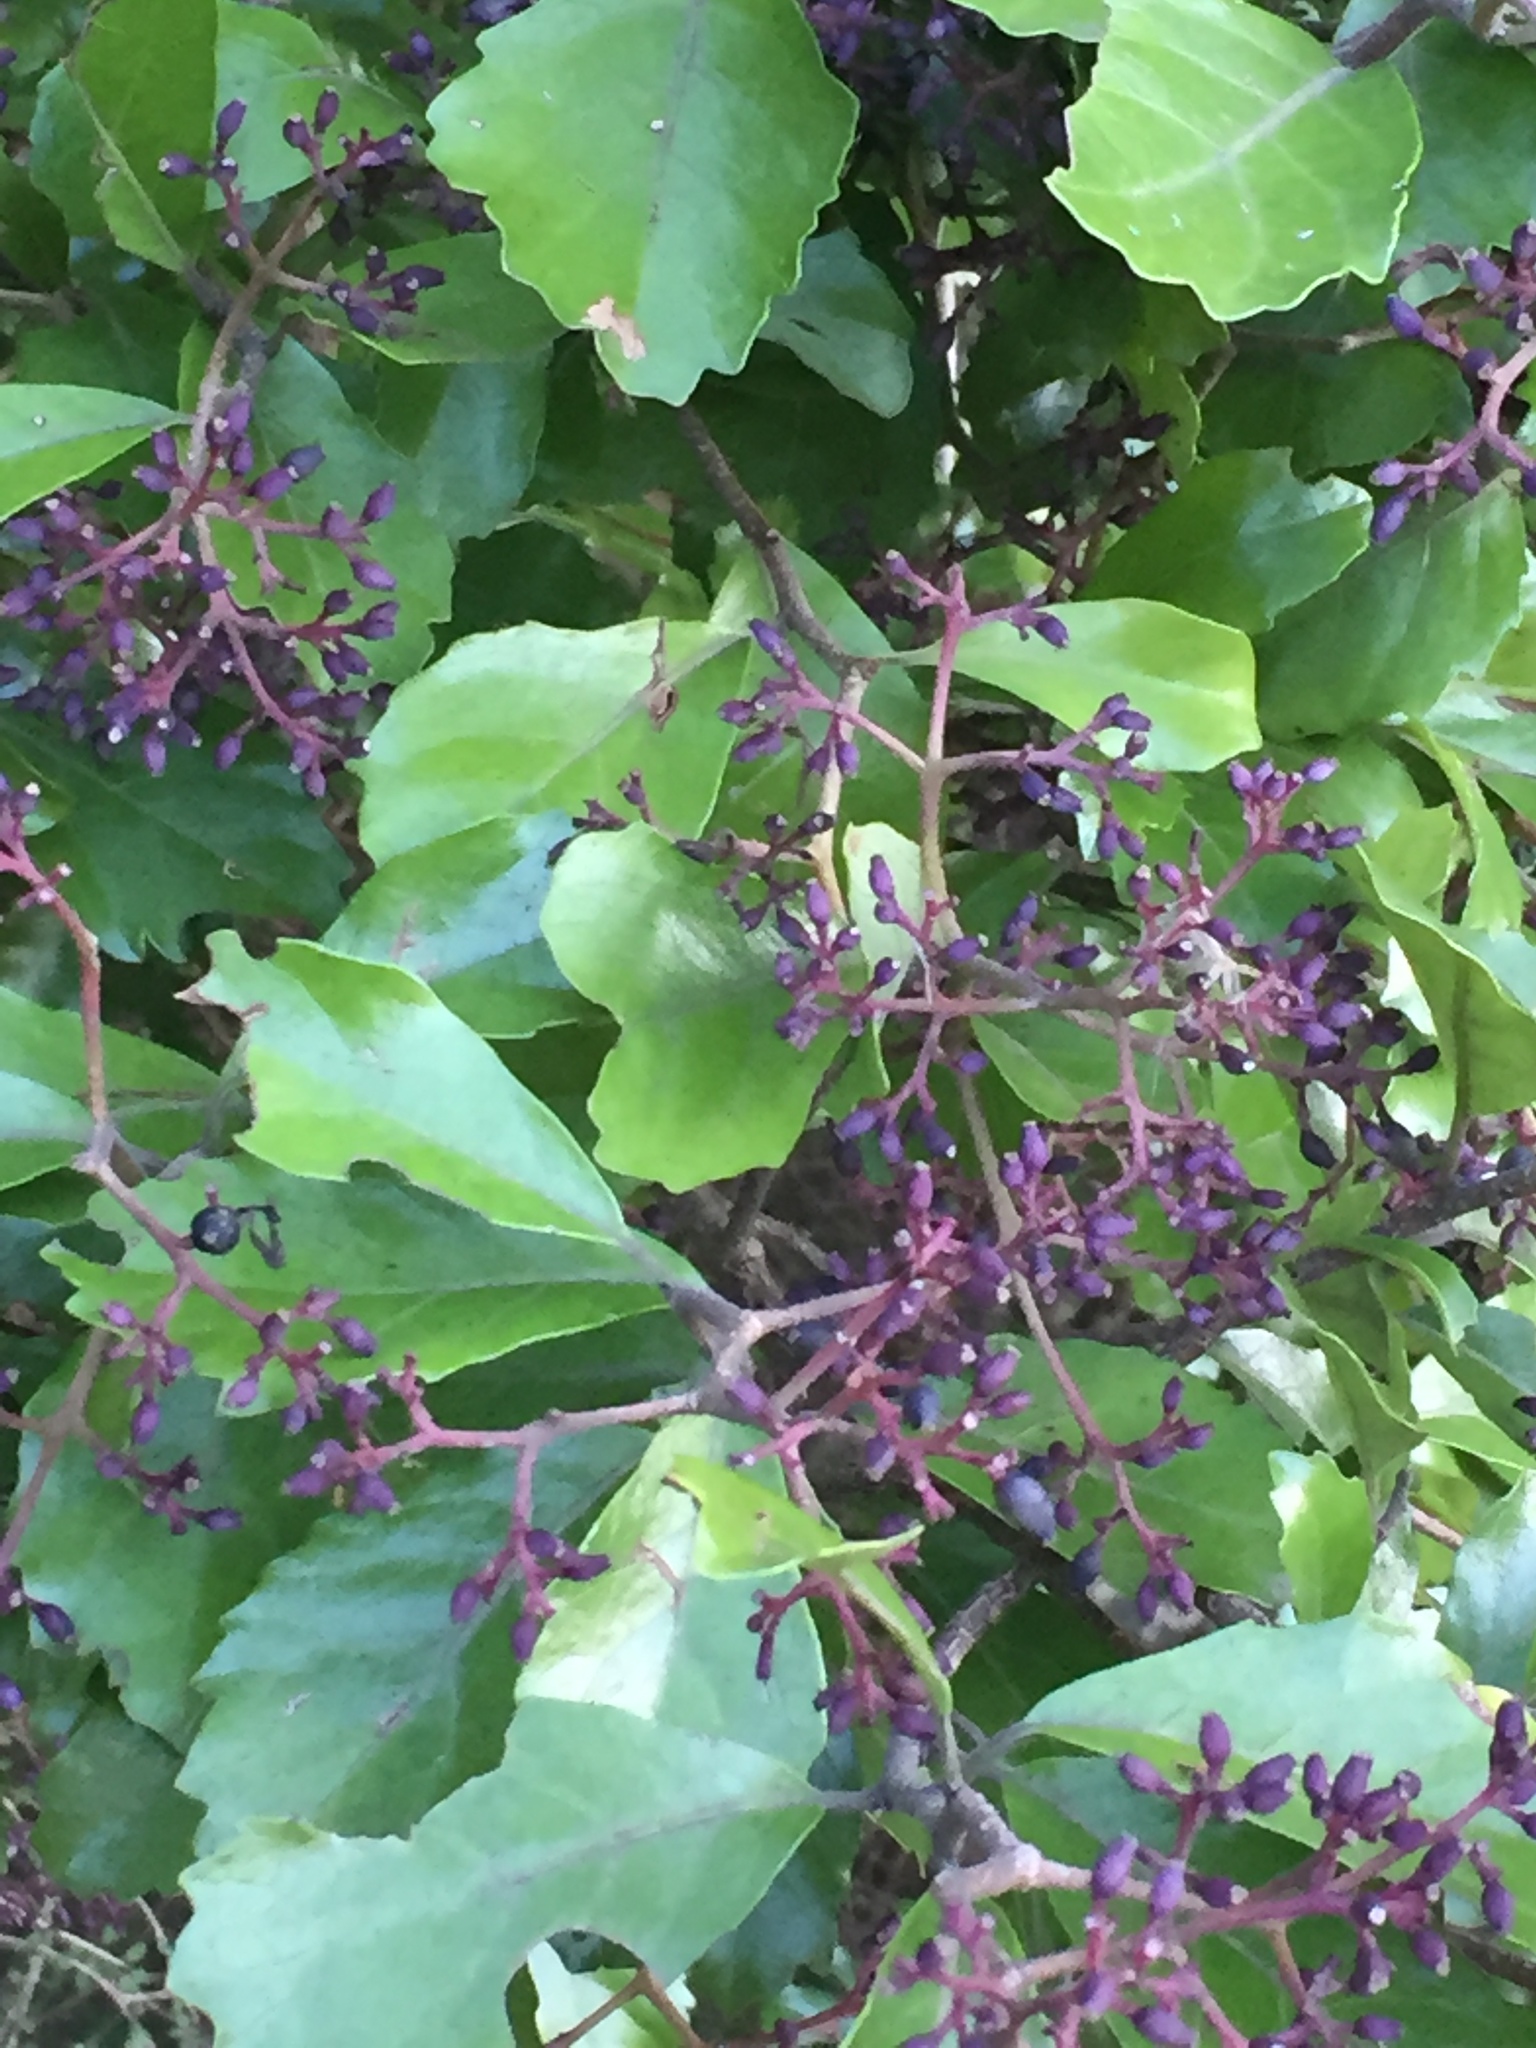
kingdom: Plantae
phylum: Tracheophyta
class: Magnoliopsida
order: Apiales
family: Pennantiaceae
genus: Pennantia
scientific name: Pennantia corymbosa
